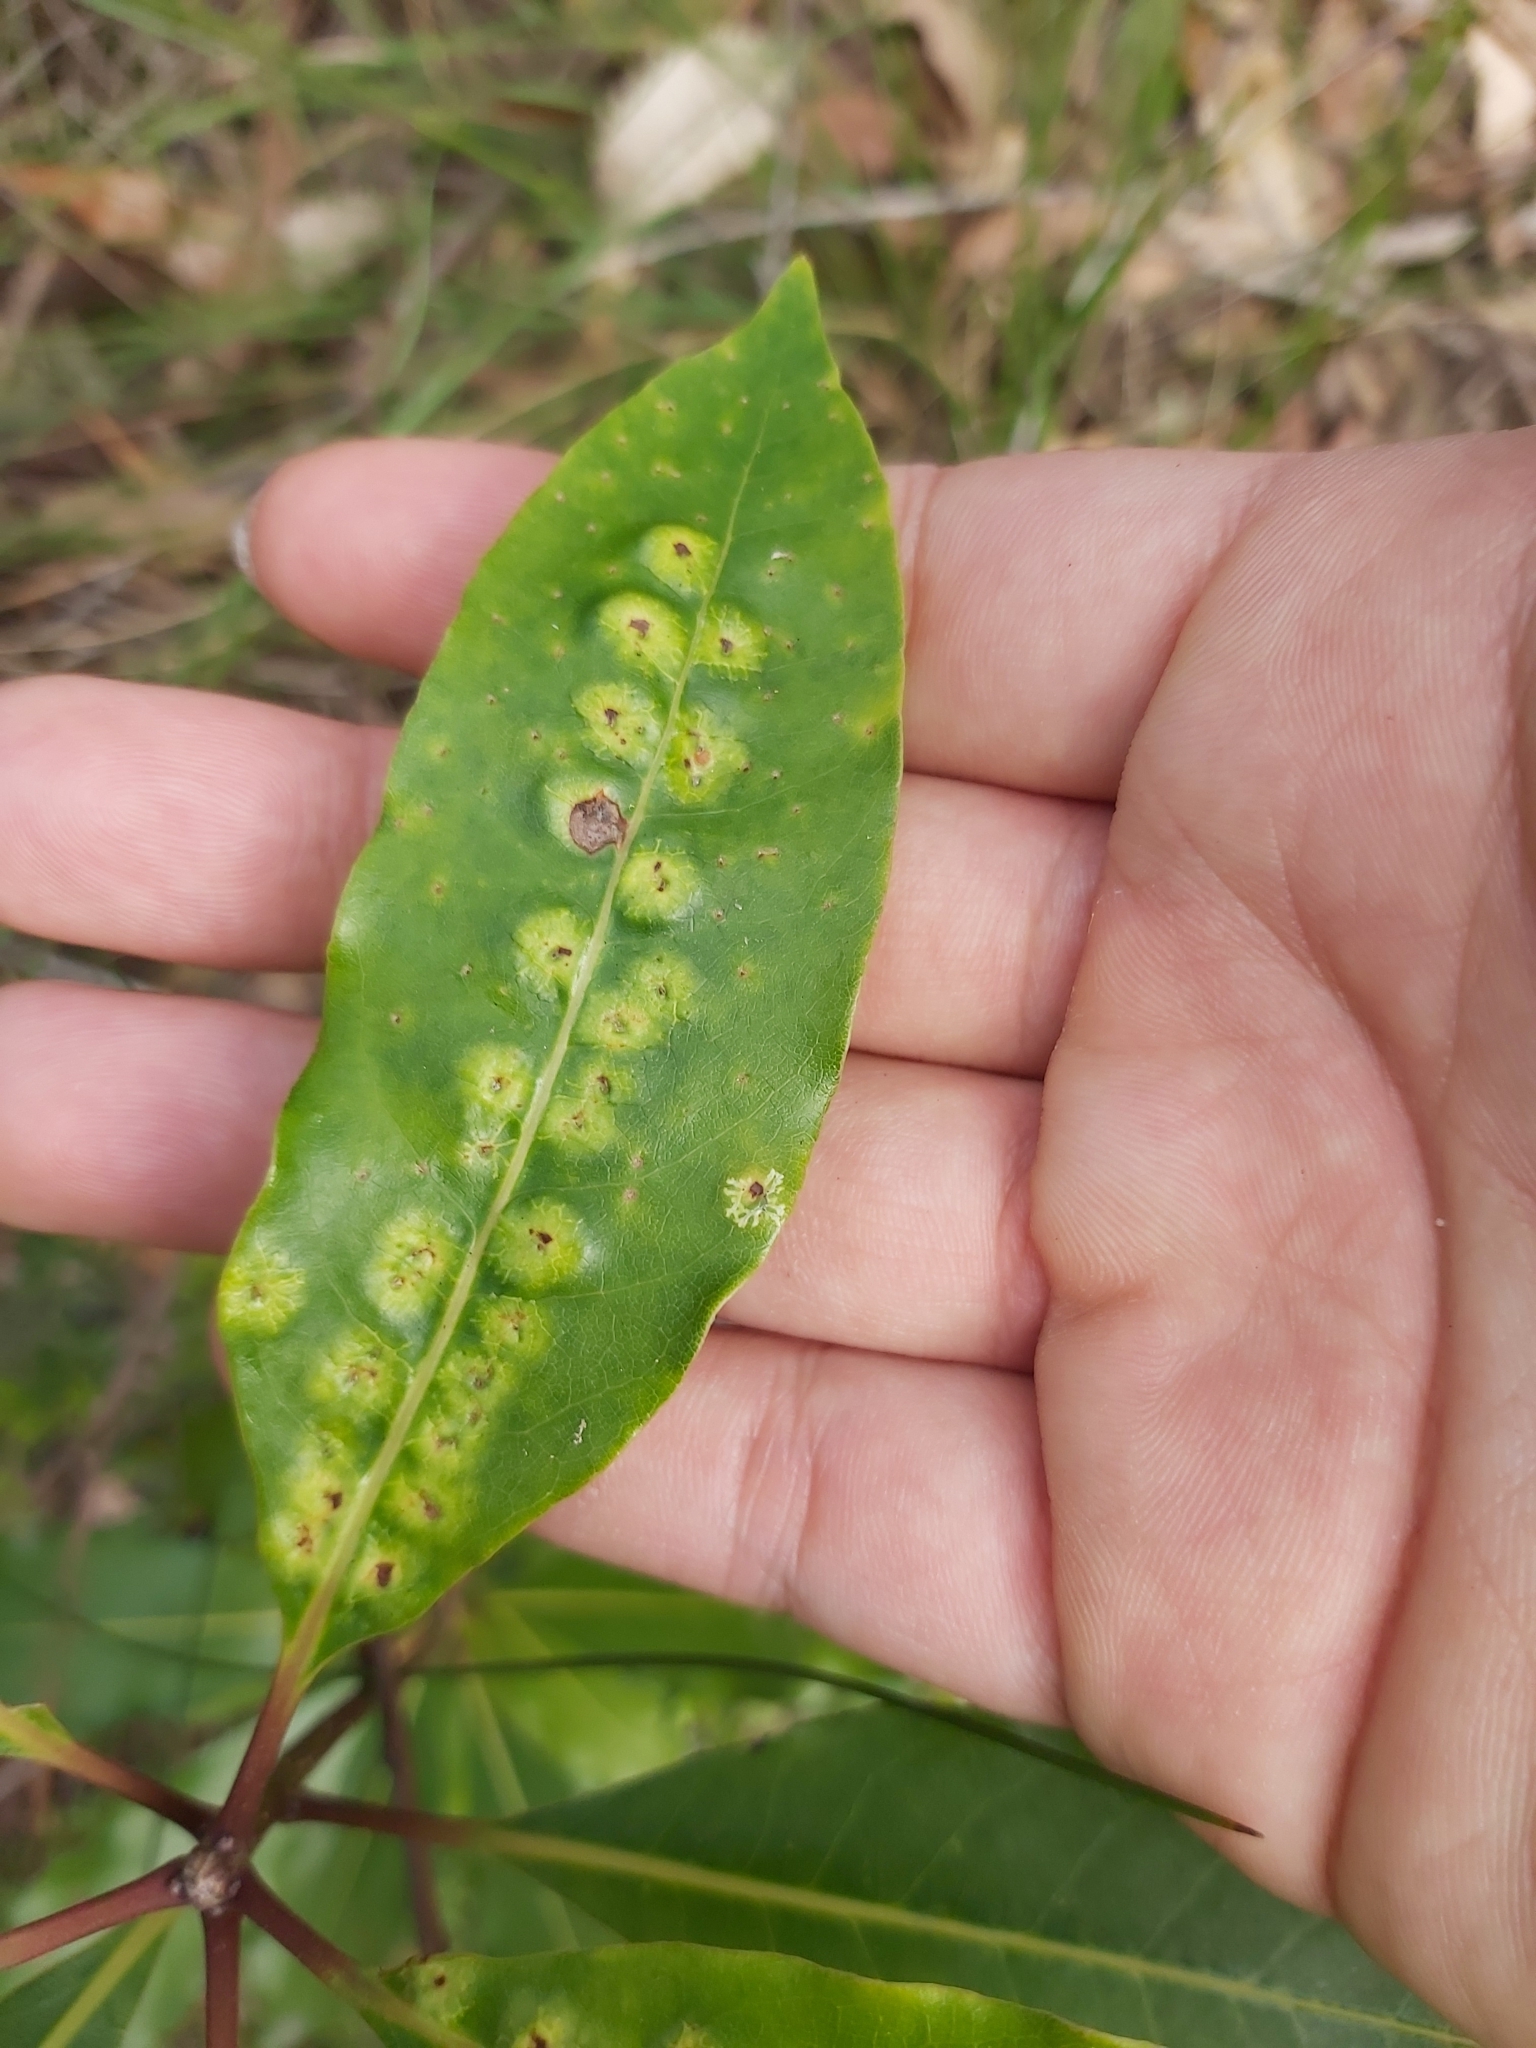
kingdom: Plantae
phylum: Tracheophyta
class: Magnoliopsida
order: Apiales
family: Pittosporaceae
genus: Pittosporum
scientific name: Pittosporum undulatum
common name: Australian cheesewood
